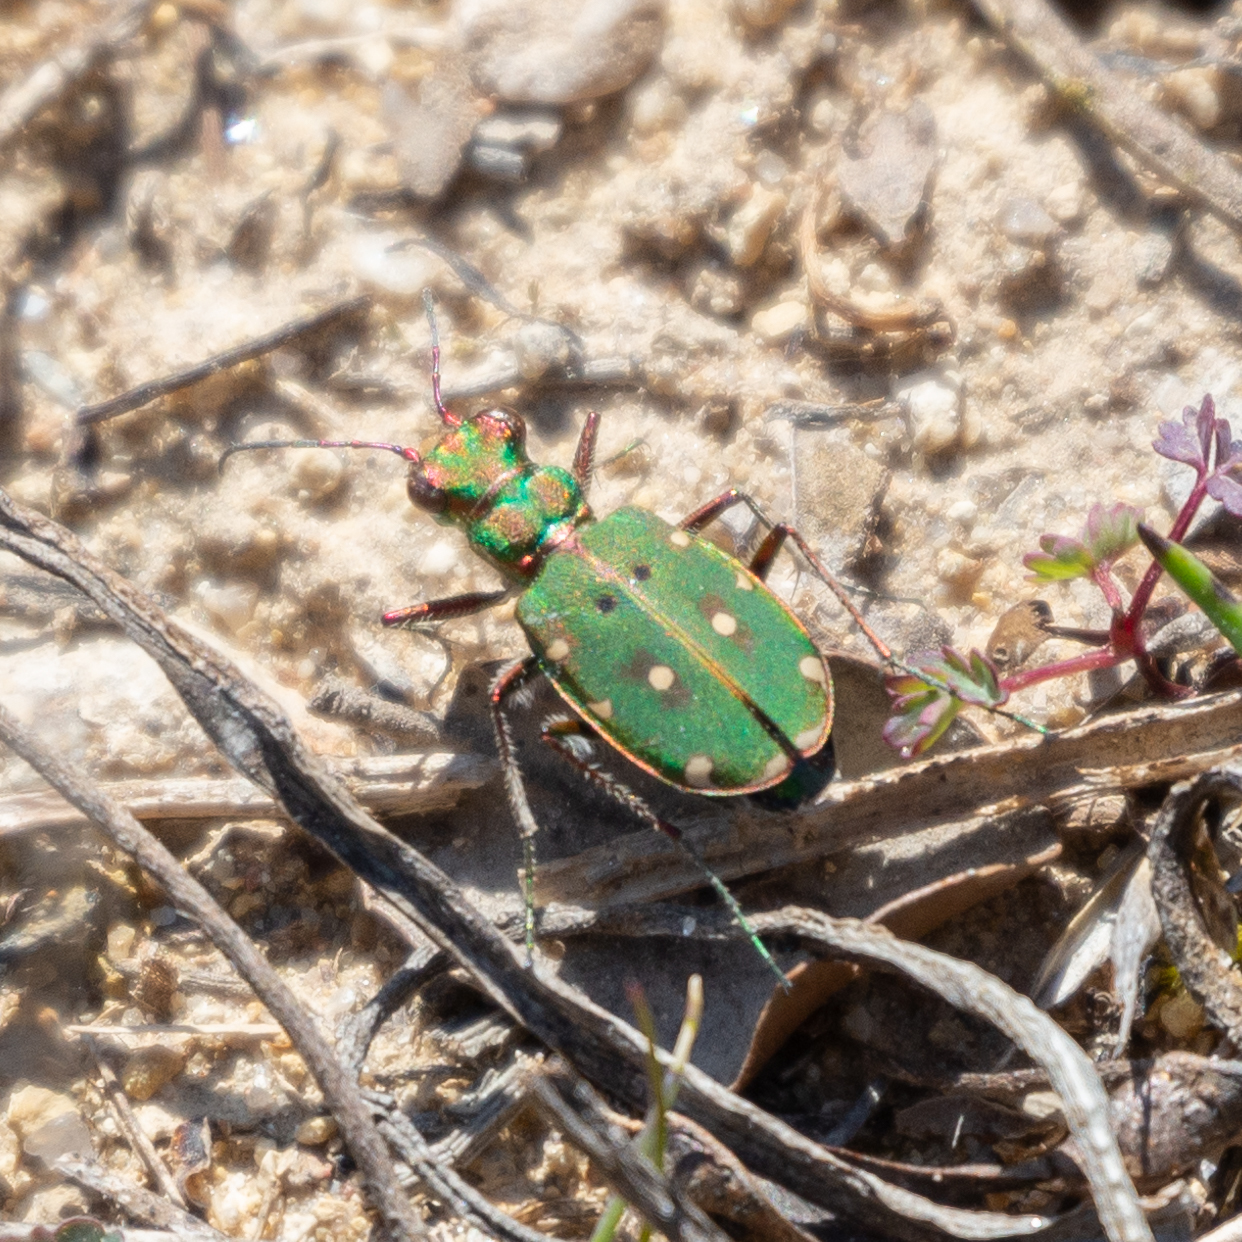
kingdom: Animalia
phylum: Arthropoda
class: Insecta
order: Coleoptera
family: Carabidae
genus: Cicindela
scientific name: Cicindela maroccana
